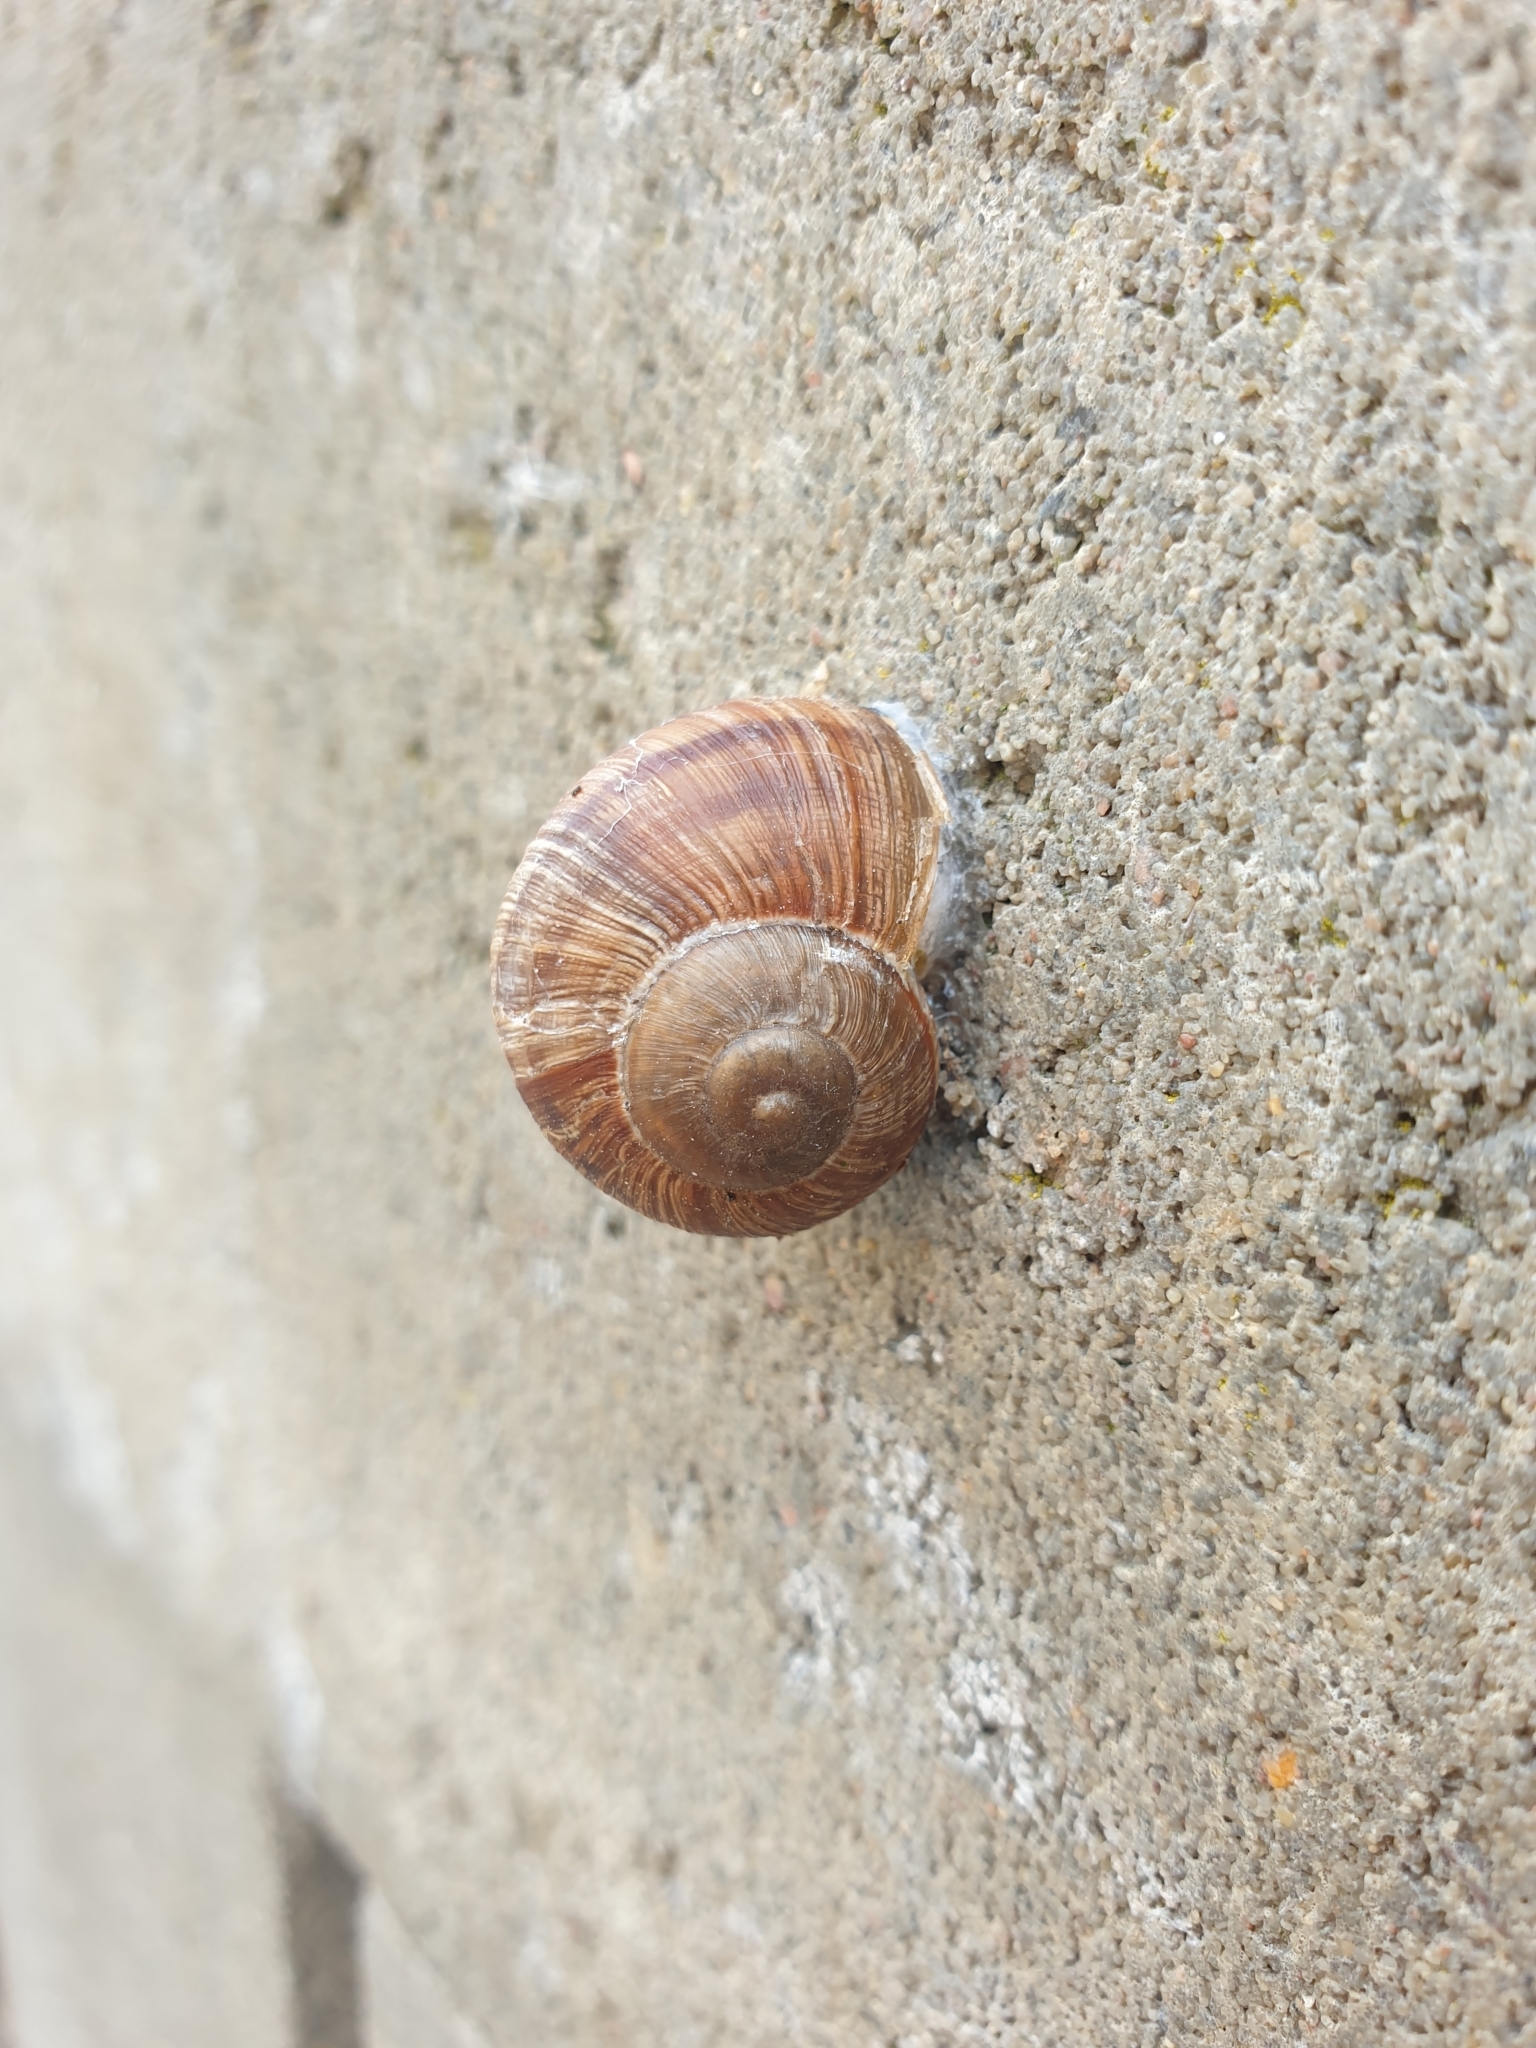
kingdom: Animalia
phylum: Mollusca
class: Gastropoda
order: Stylommatophora
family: Helicidae
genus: Helix
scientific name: Helix pomatia
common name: Roman snail
